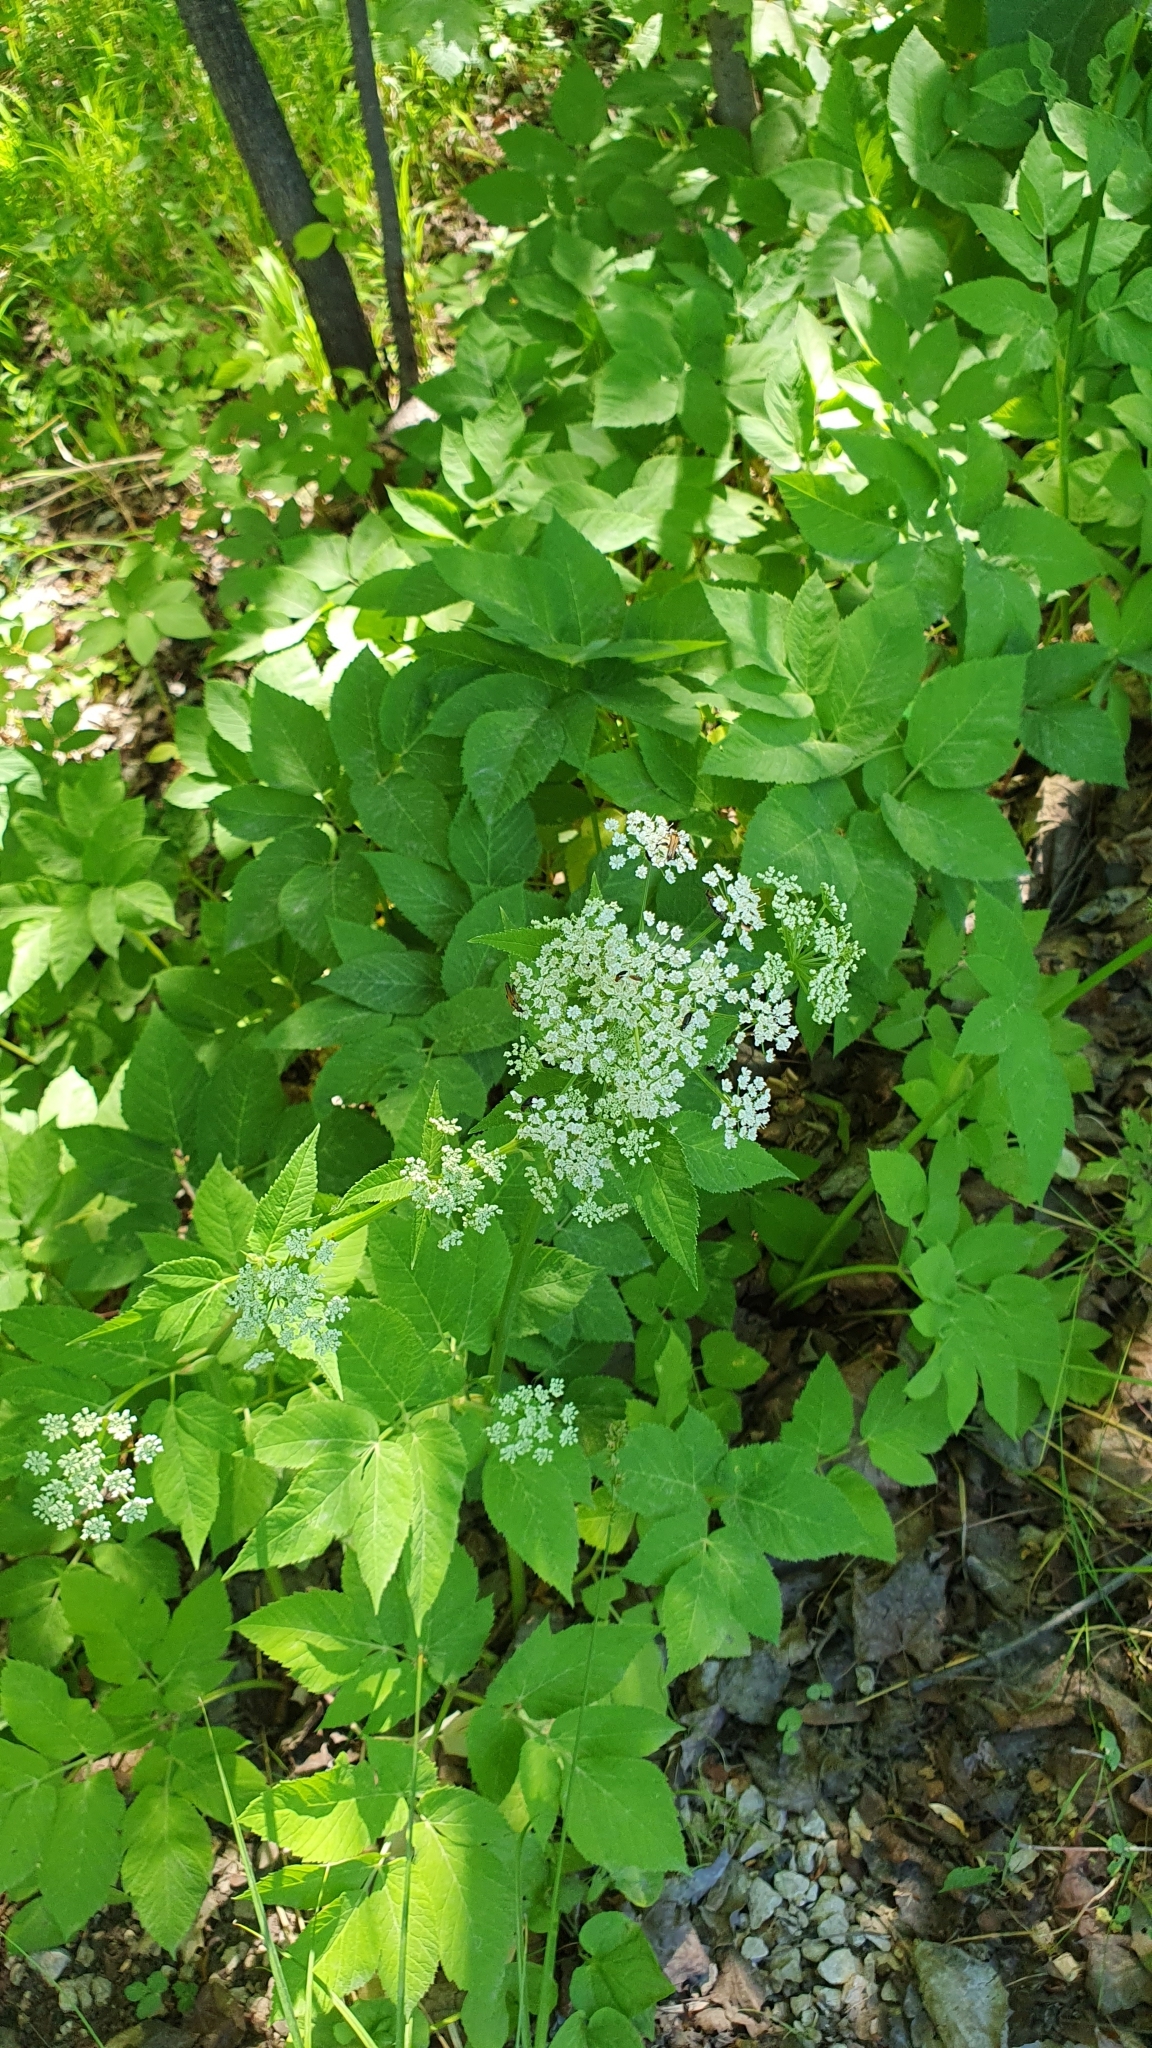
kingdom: Plantae
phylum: Tracheophyta
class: Magnoliopsida
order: Apiales
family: Apiaceae
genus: Aegopodium
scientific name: Aegopodium podagraria
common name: Ground-elder
